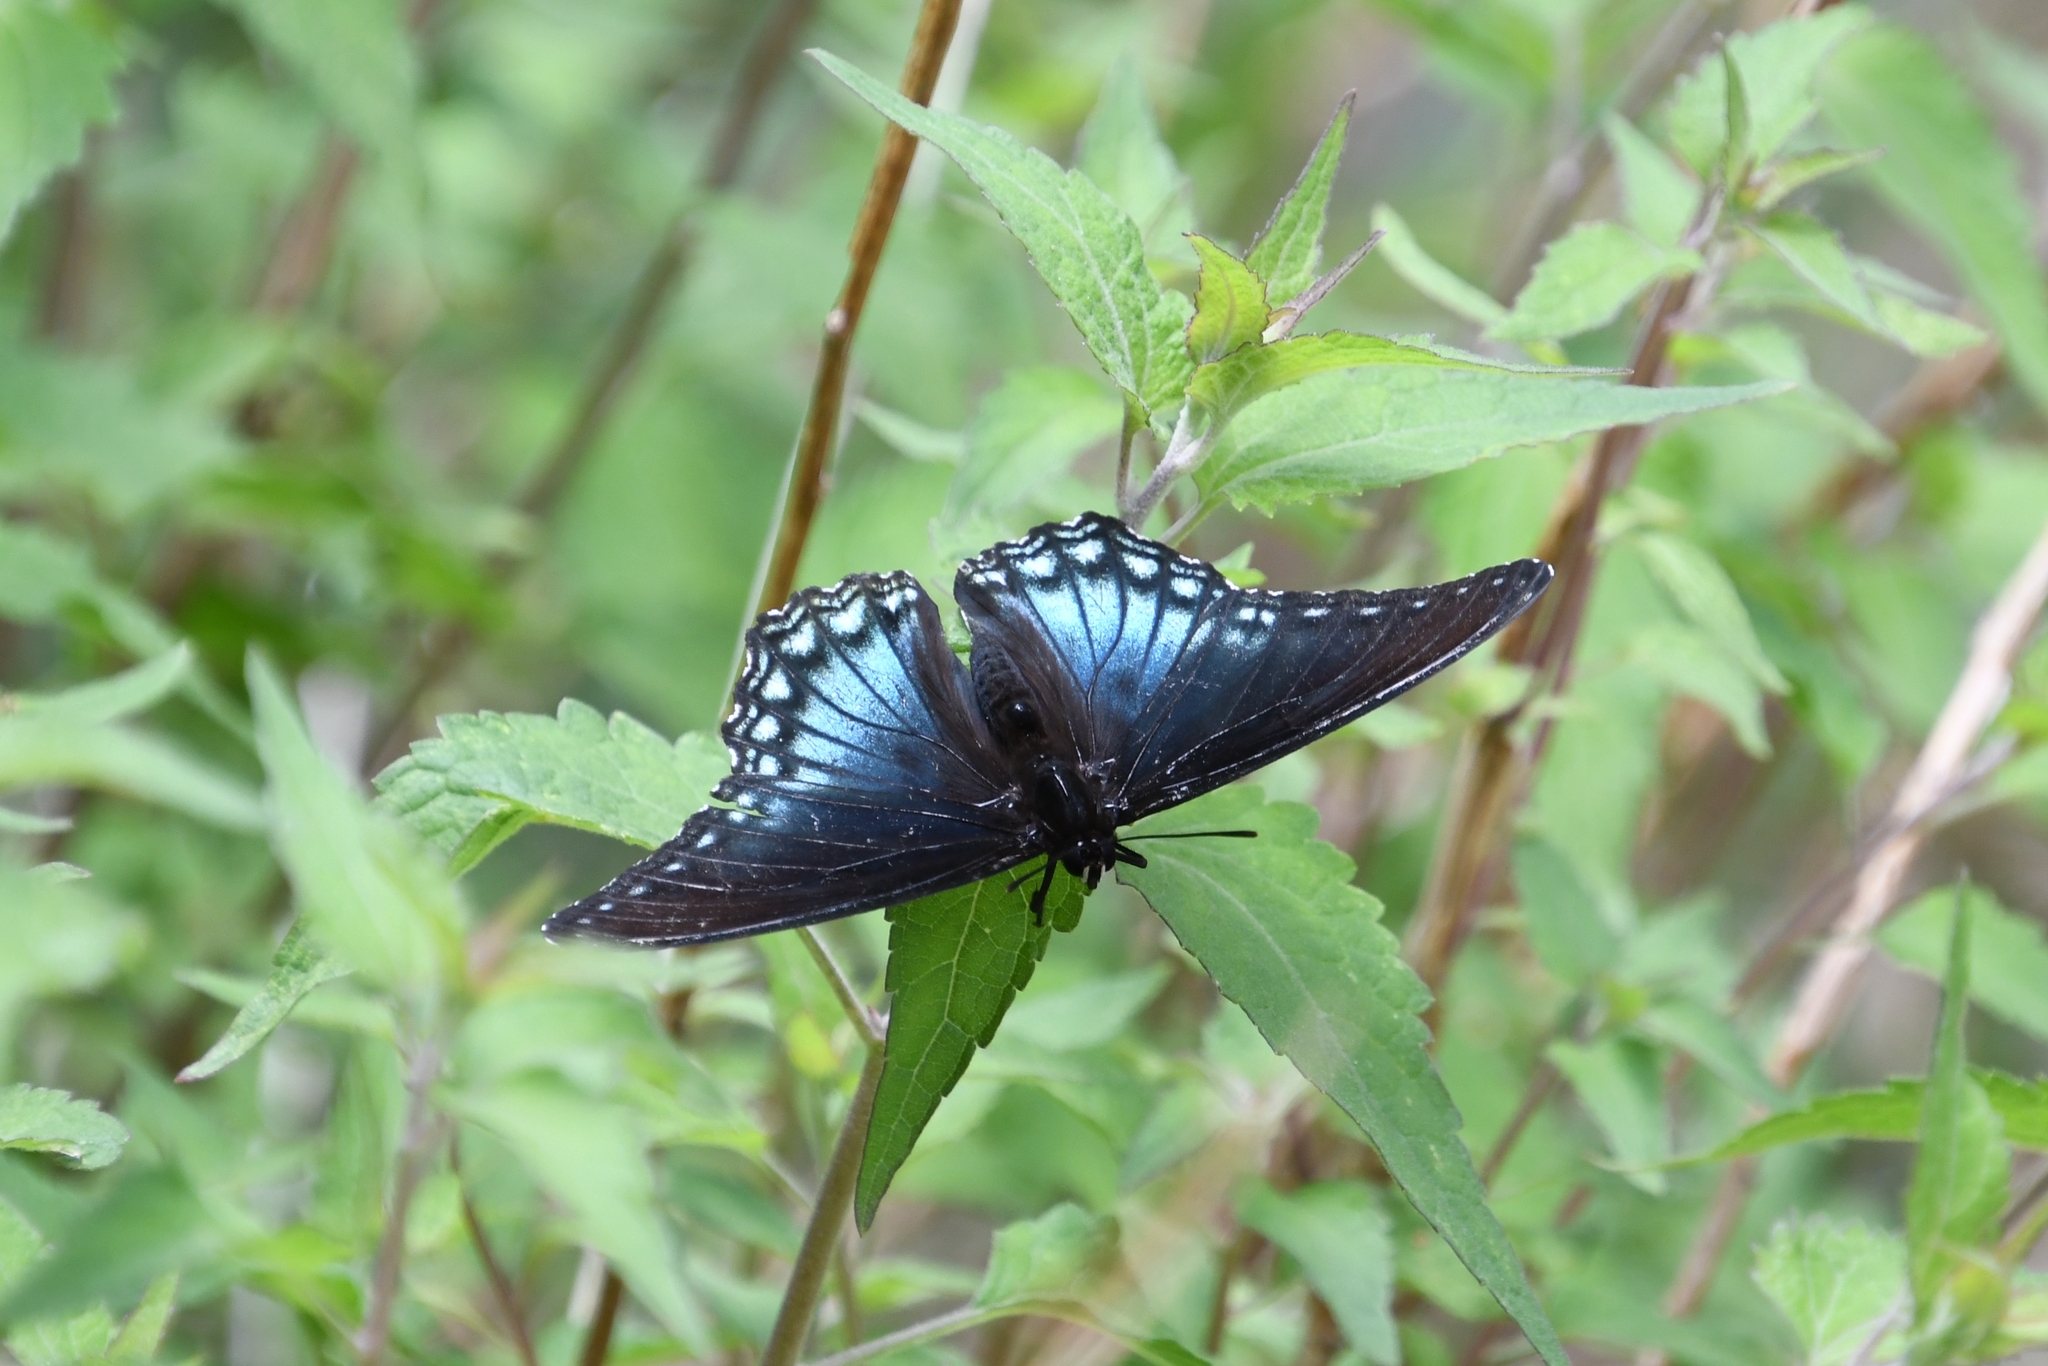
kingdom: Animalia
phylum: Arthropoda
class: Insecta
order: Lepidoptera
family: Nymphalidae
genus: Limenitis
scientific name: Limenitis arthemis
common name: Red-spotted admiral
